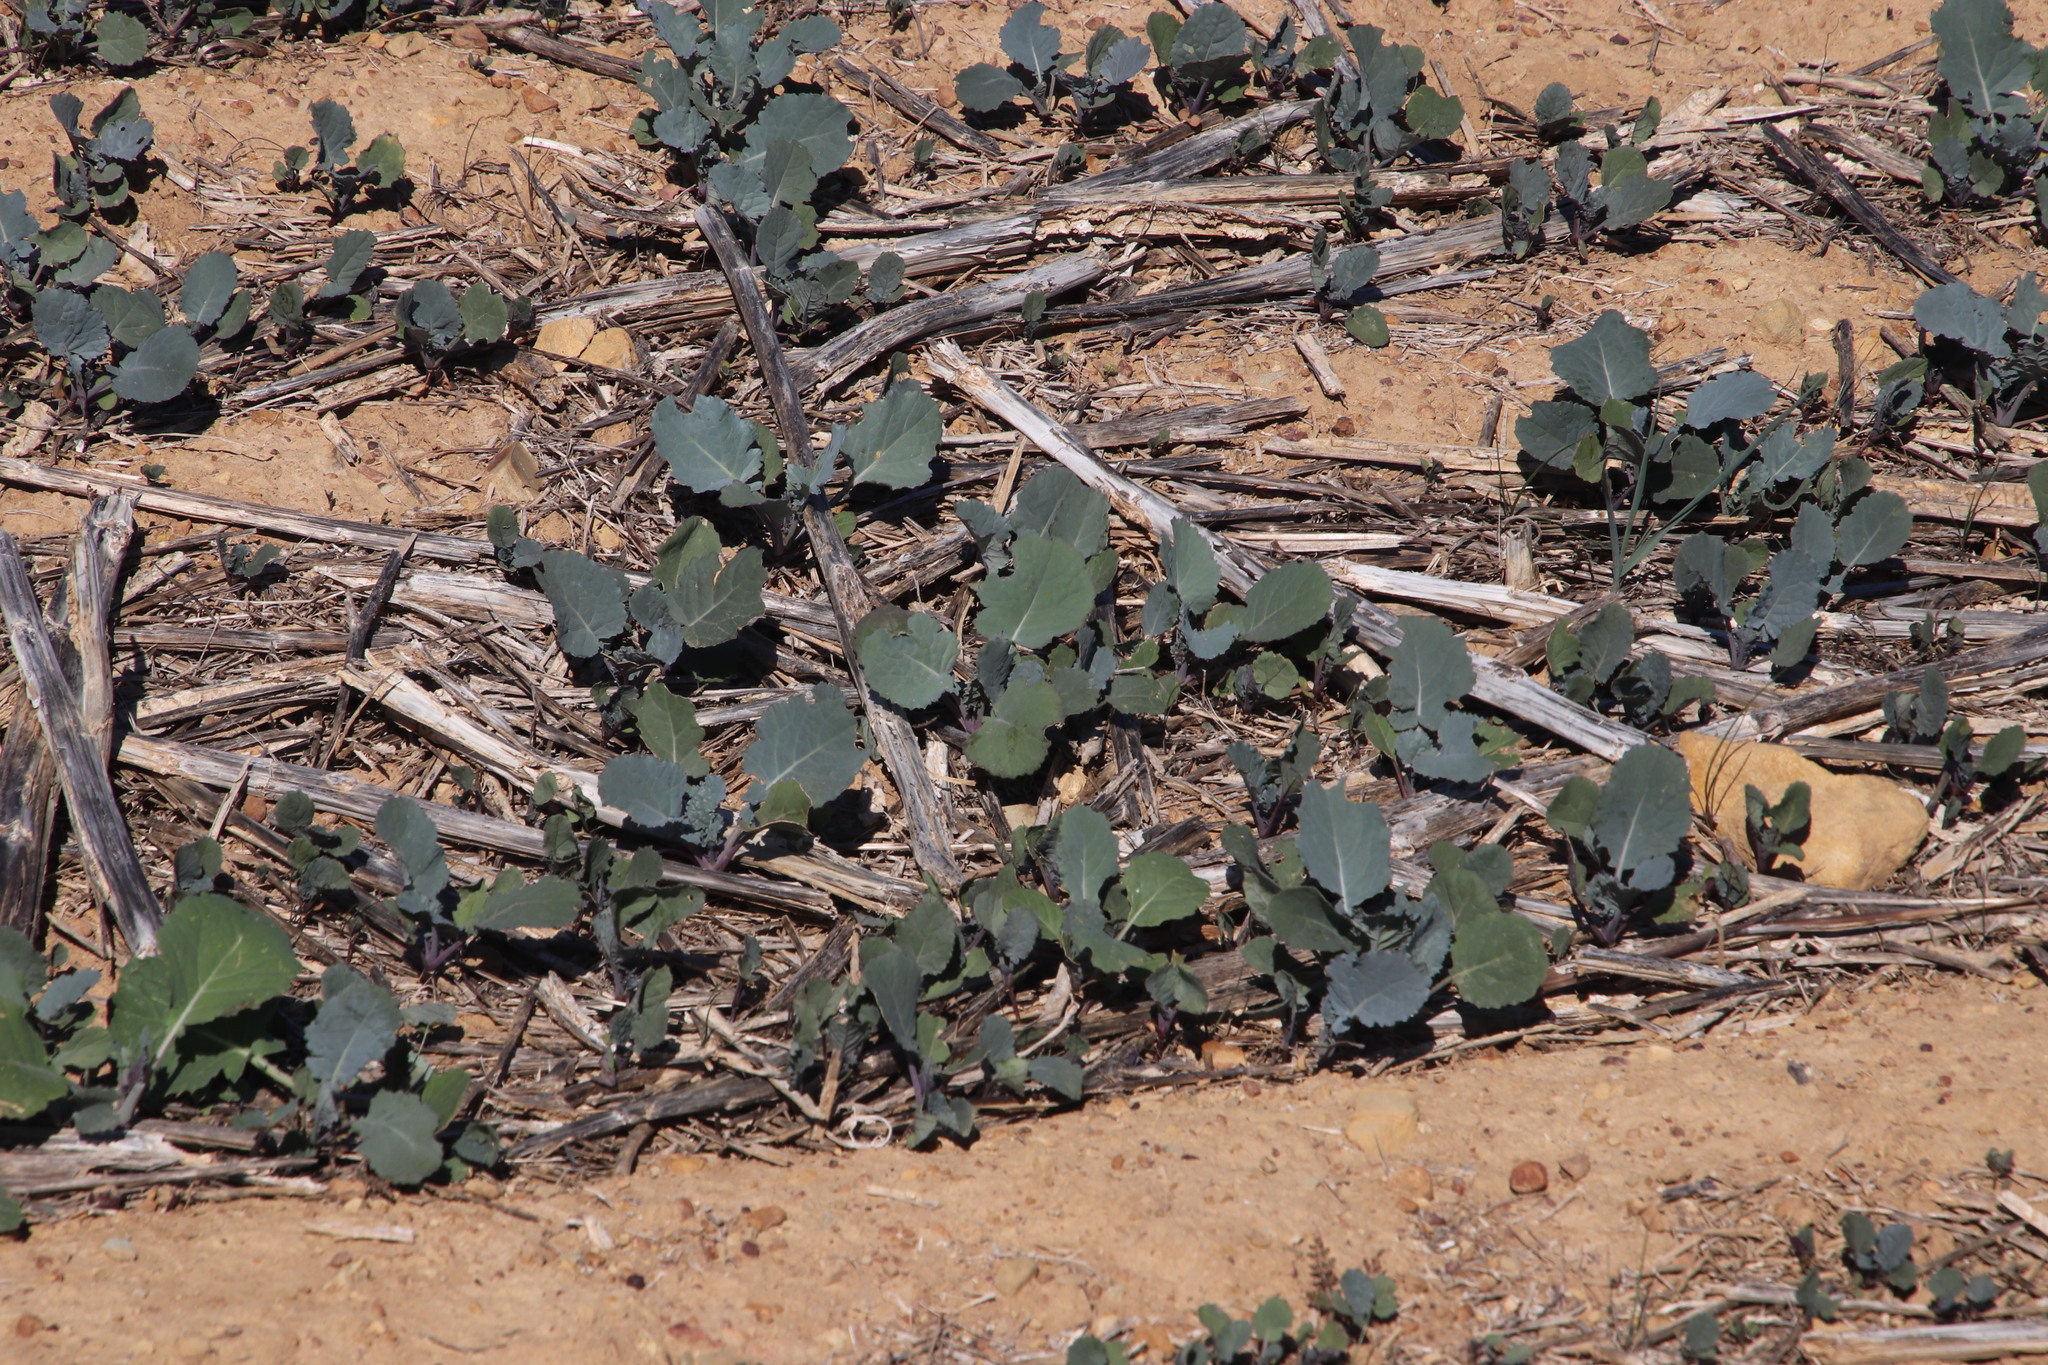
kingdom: Plantae
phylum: Tracheophyta
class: Magnoliopsida
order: Brassicales
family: Brassicaceae
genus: Brassica
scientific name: Brassica napus
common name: Rape
